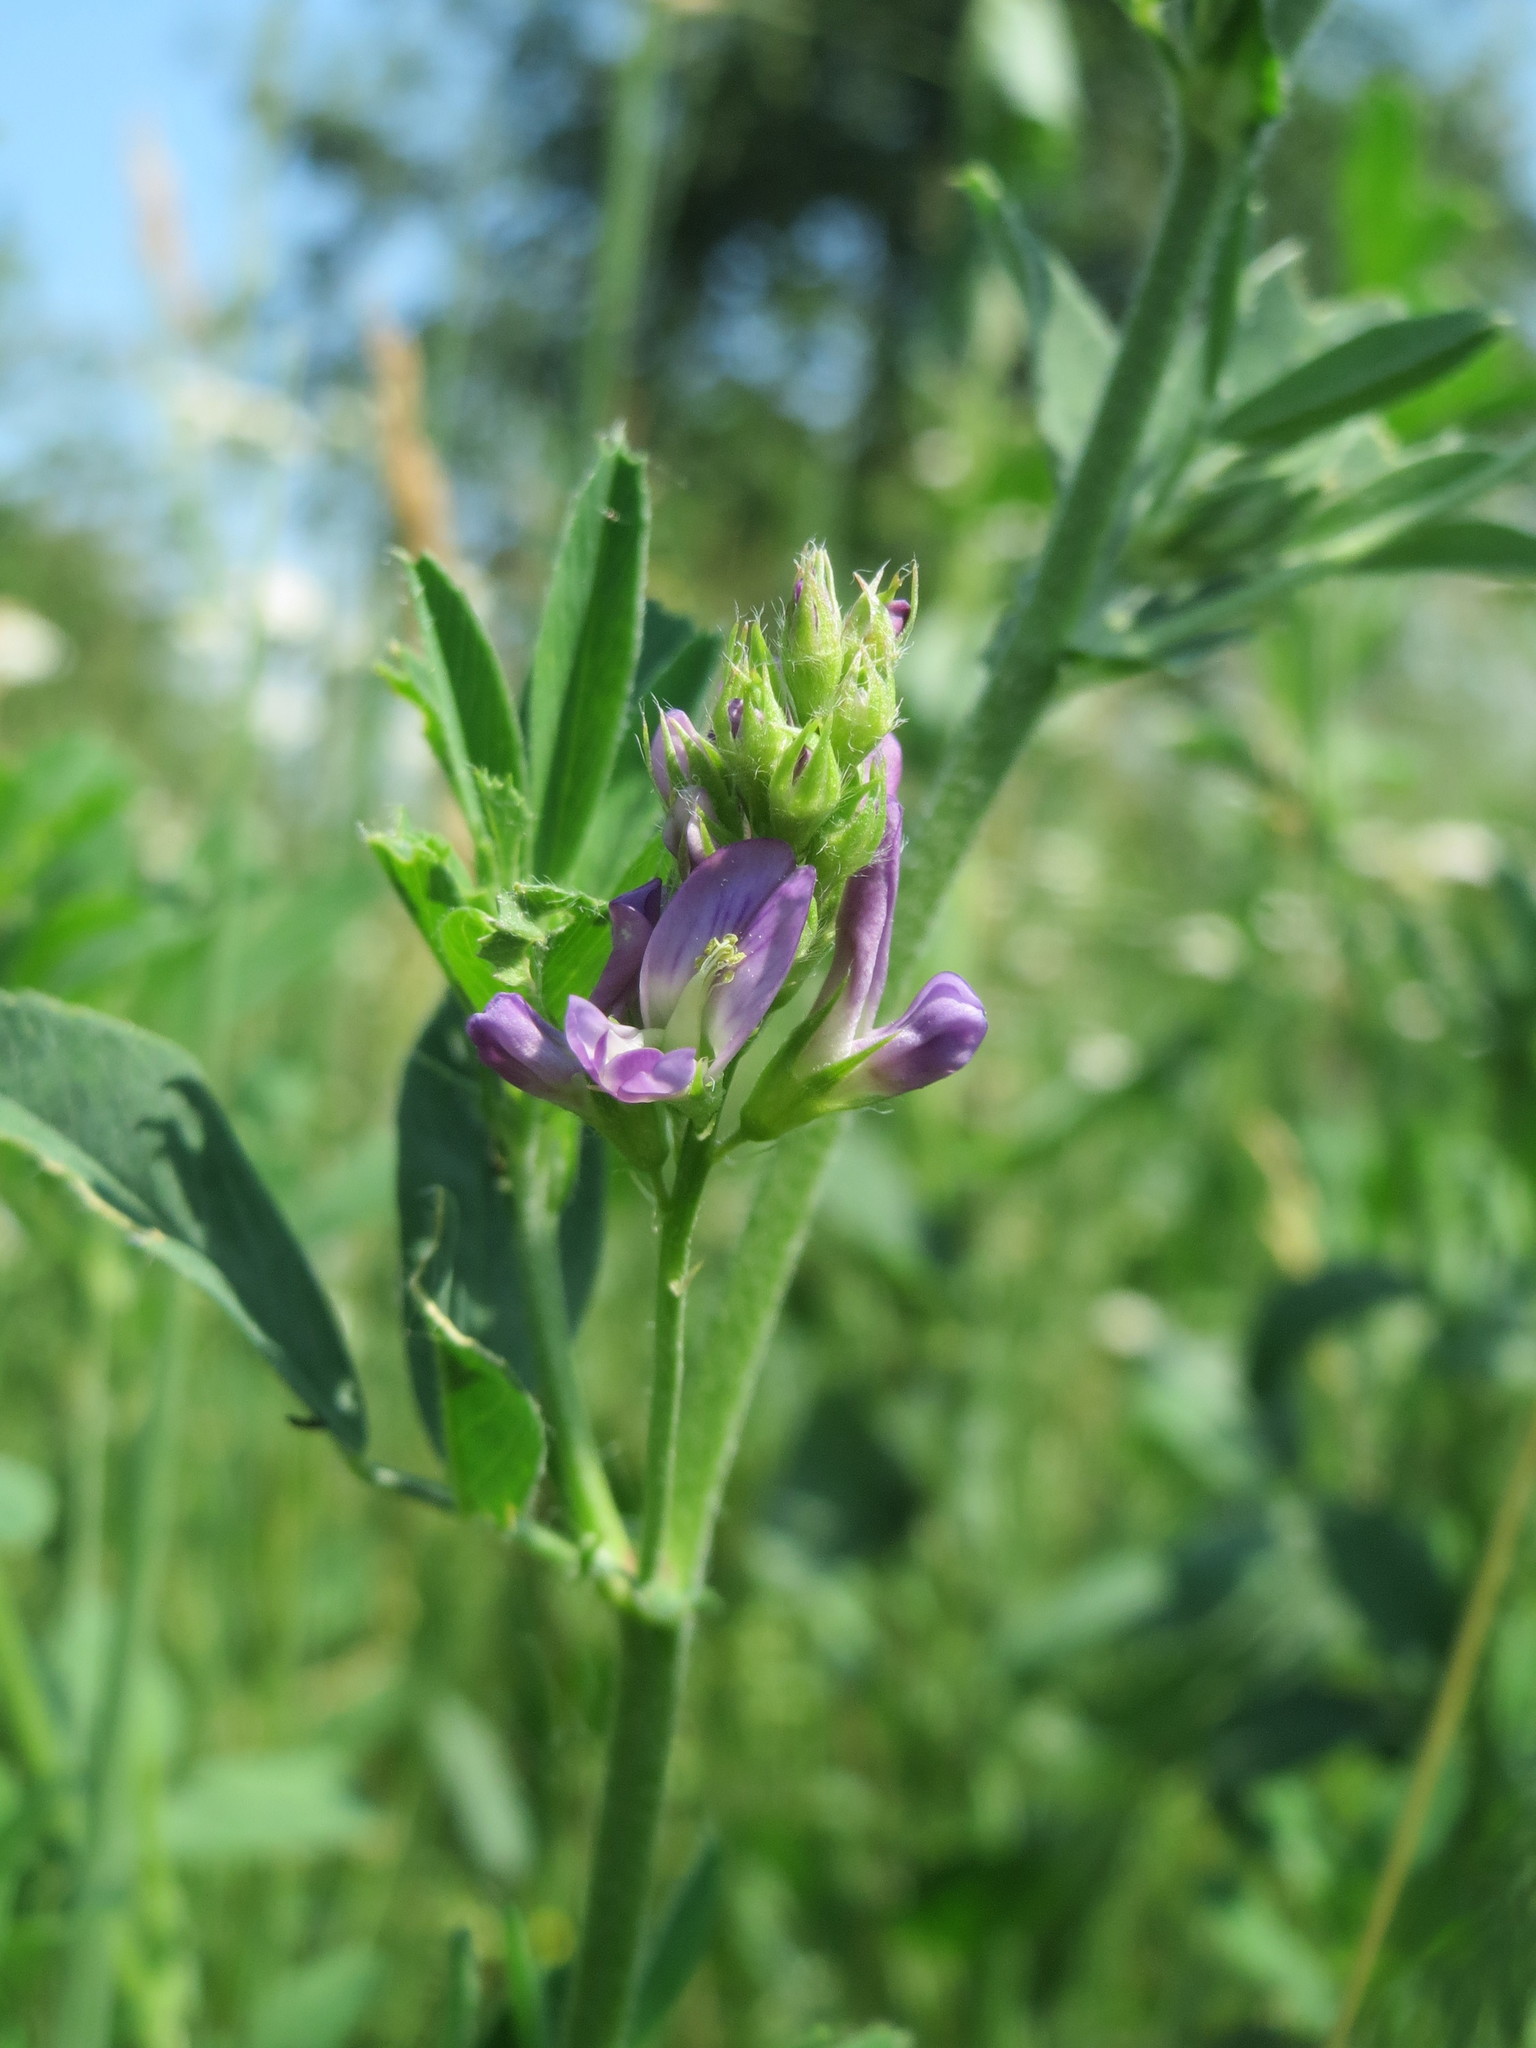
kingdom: Plantae
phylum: Tracheophyta
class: Magnoliopsida
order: Fabales
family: Fabaceae
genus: Medicago
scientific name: Medicago sativa
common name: Alfalfa
